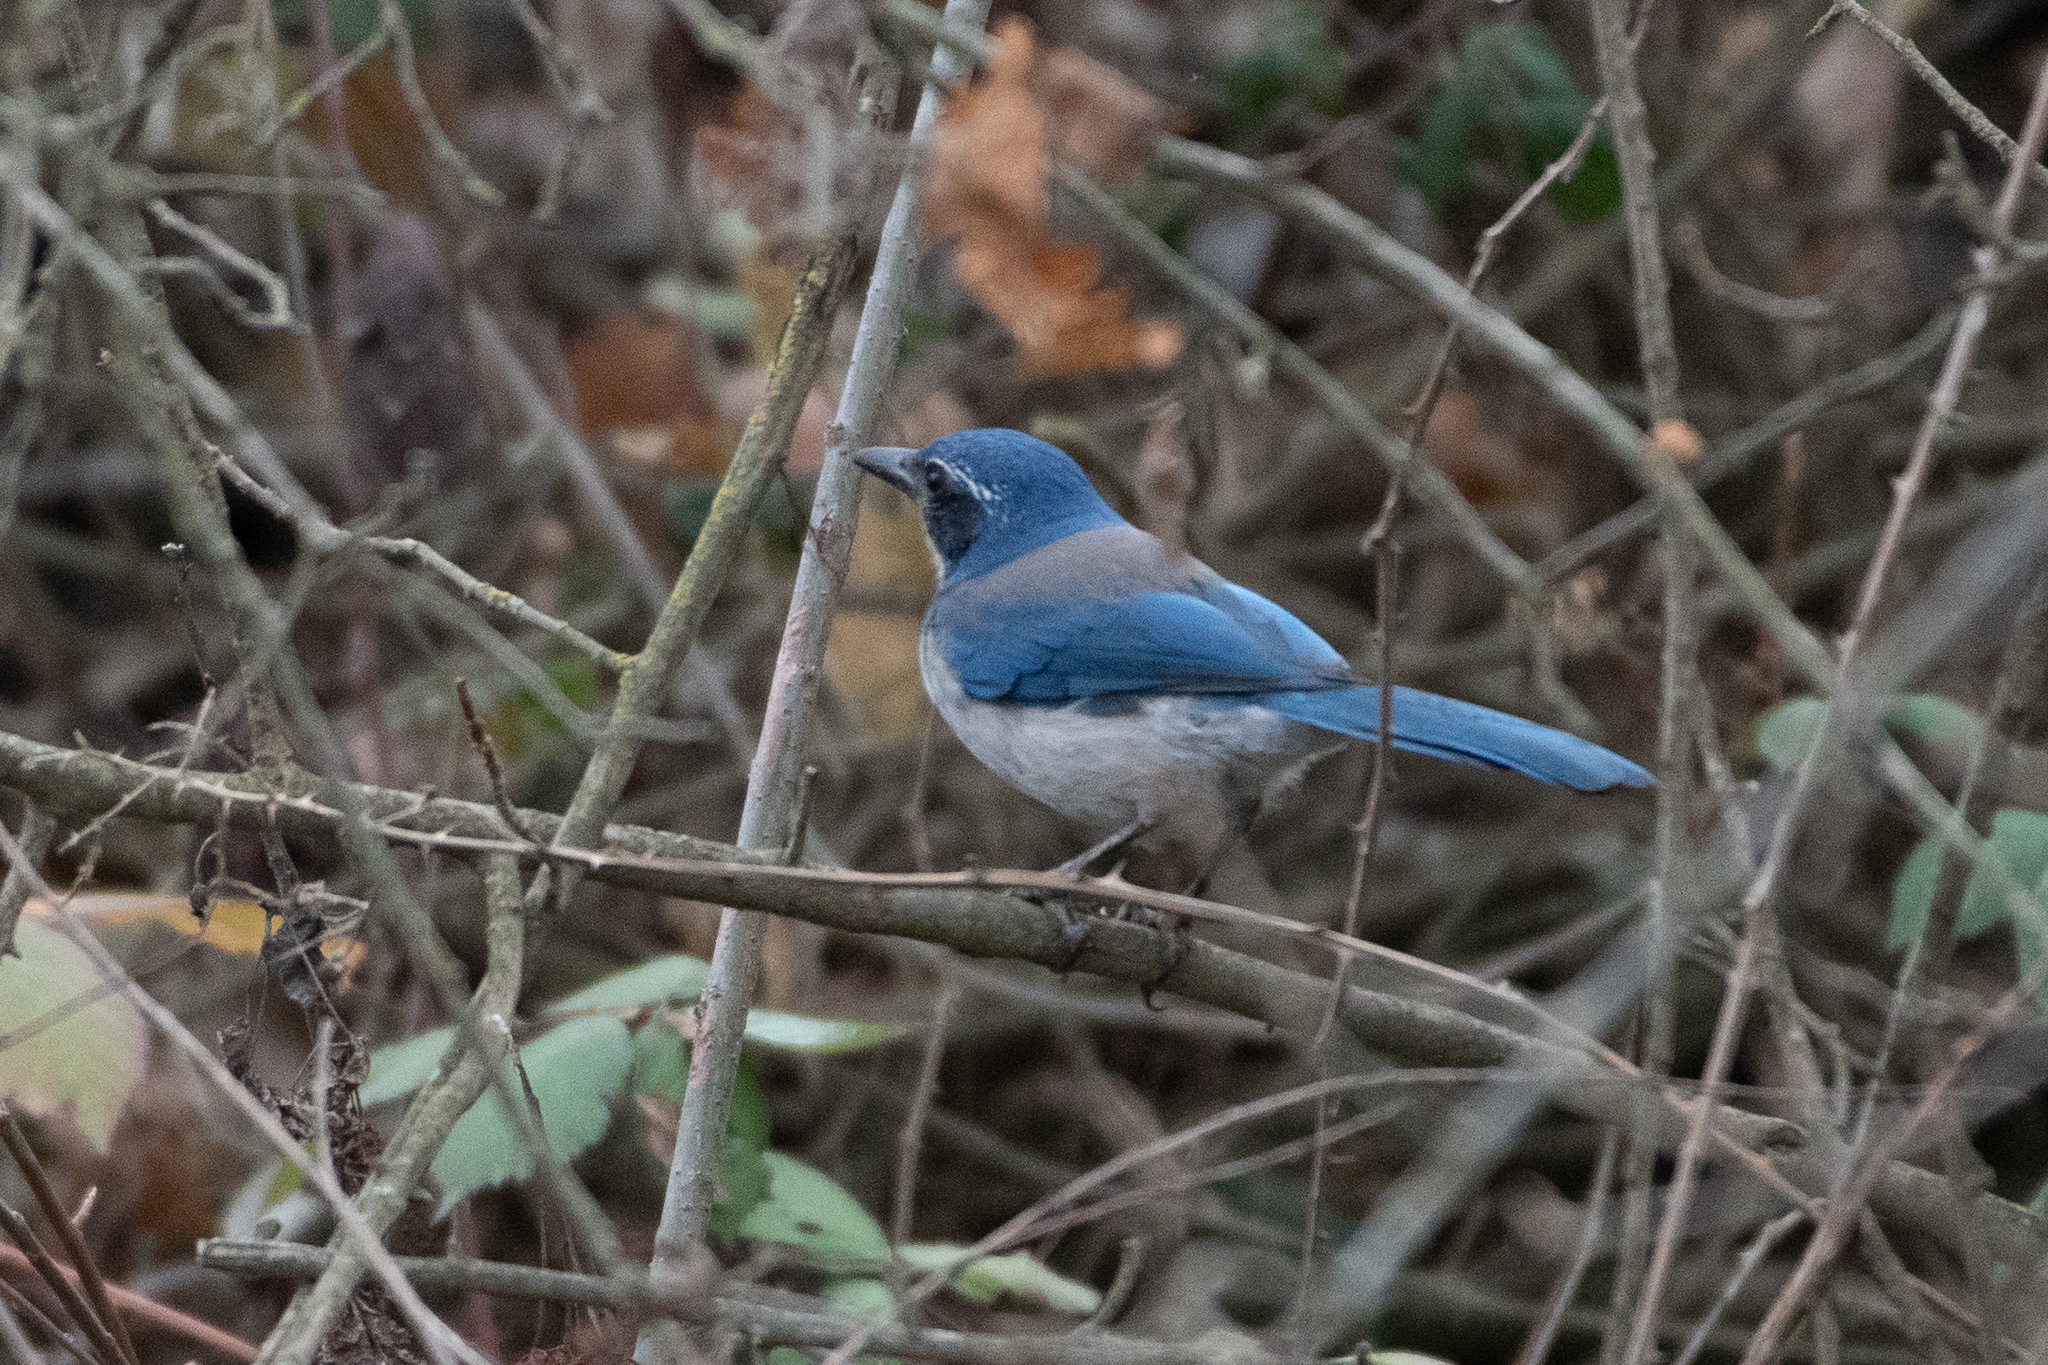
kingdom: Animalia
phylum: Chordata
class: Aves
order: Passeriformes
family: Corvidae
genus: Aphelocoma
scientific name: Aphelocoma californica
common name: California scrub-jay
